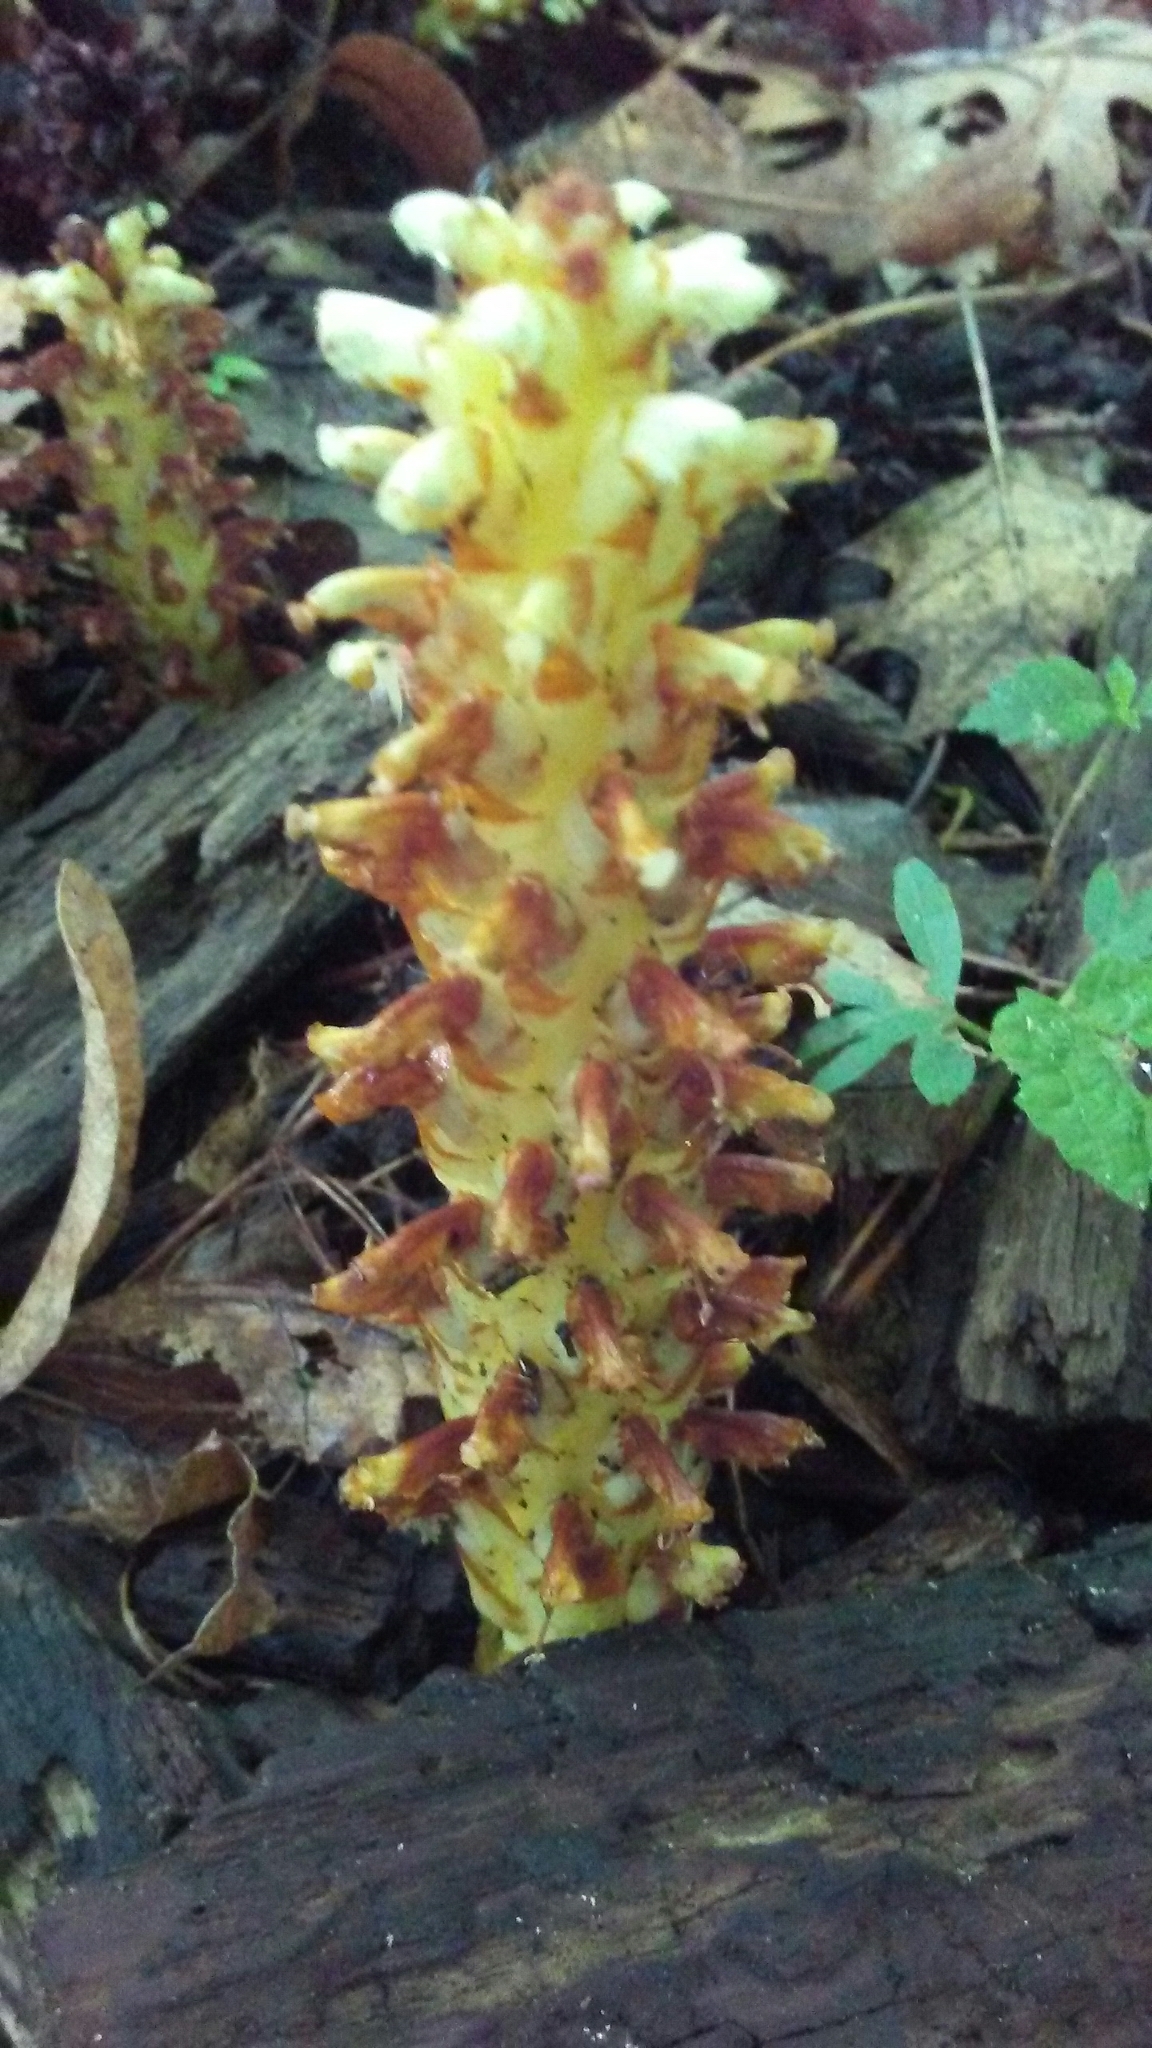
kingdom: Plantae
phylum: Tracheophyta
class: Magnoliopsida
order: Lamiales
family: Orobanchaceae
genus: Conopholis
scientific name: Conopholis americana
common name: American cancer-root
